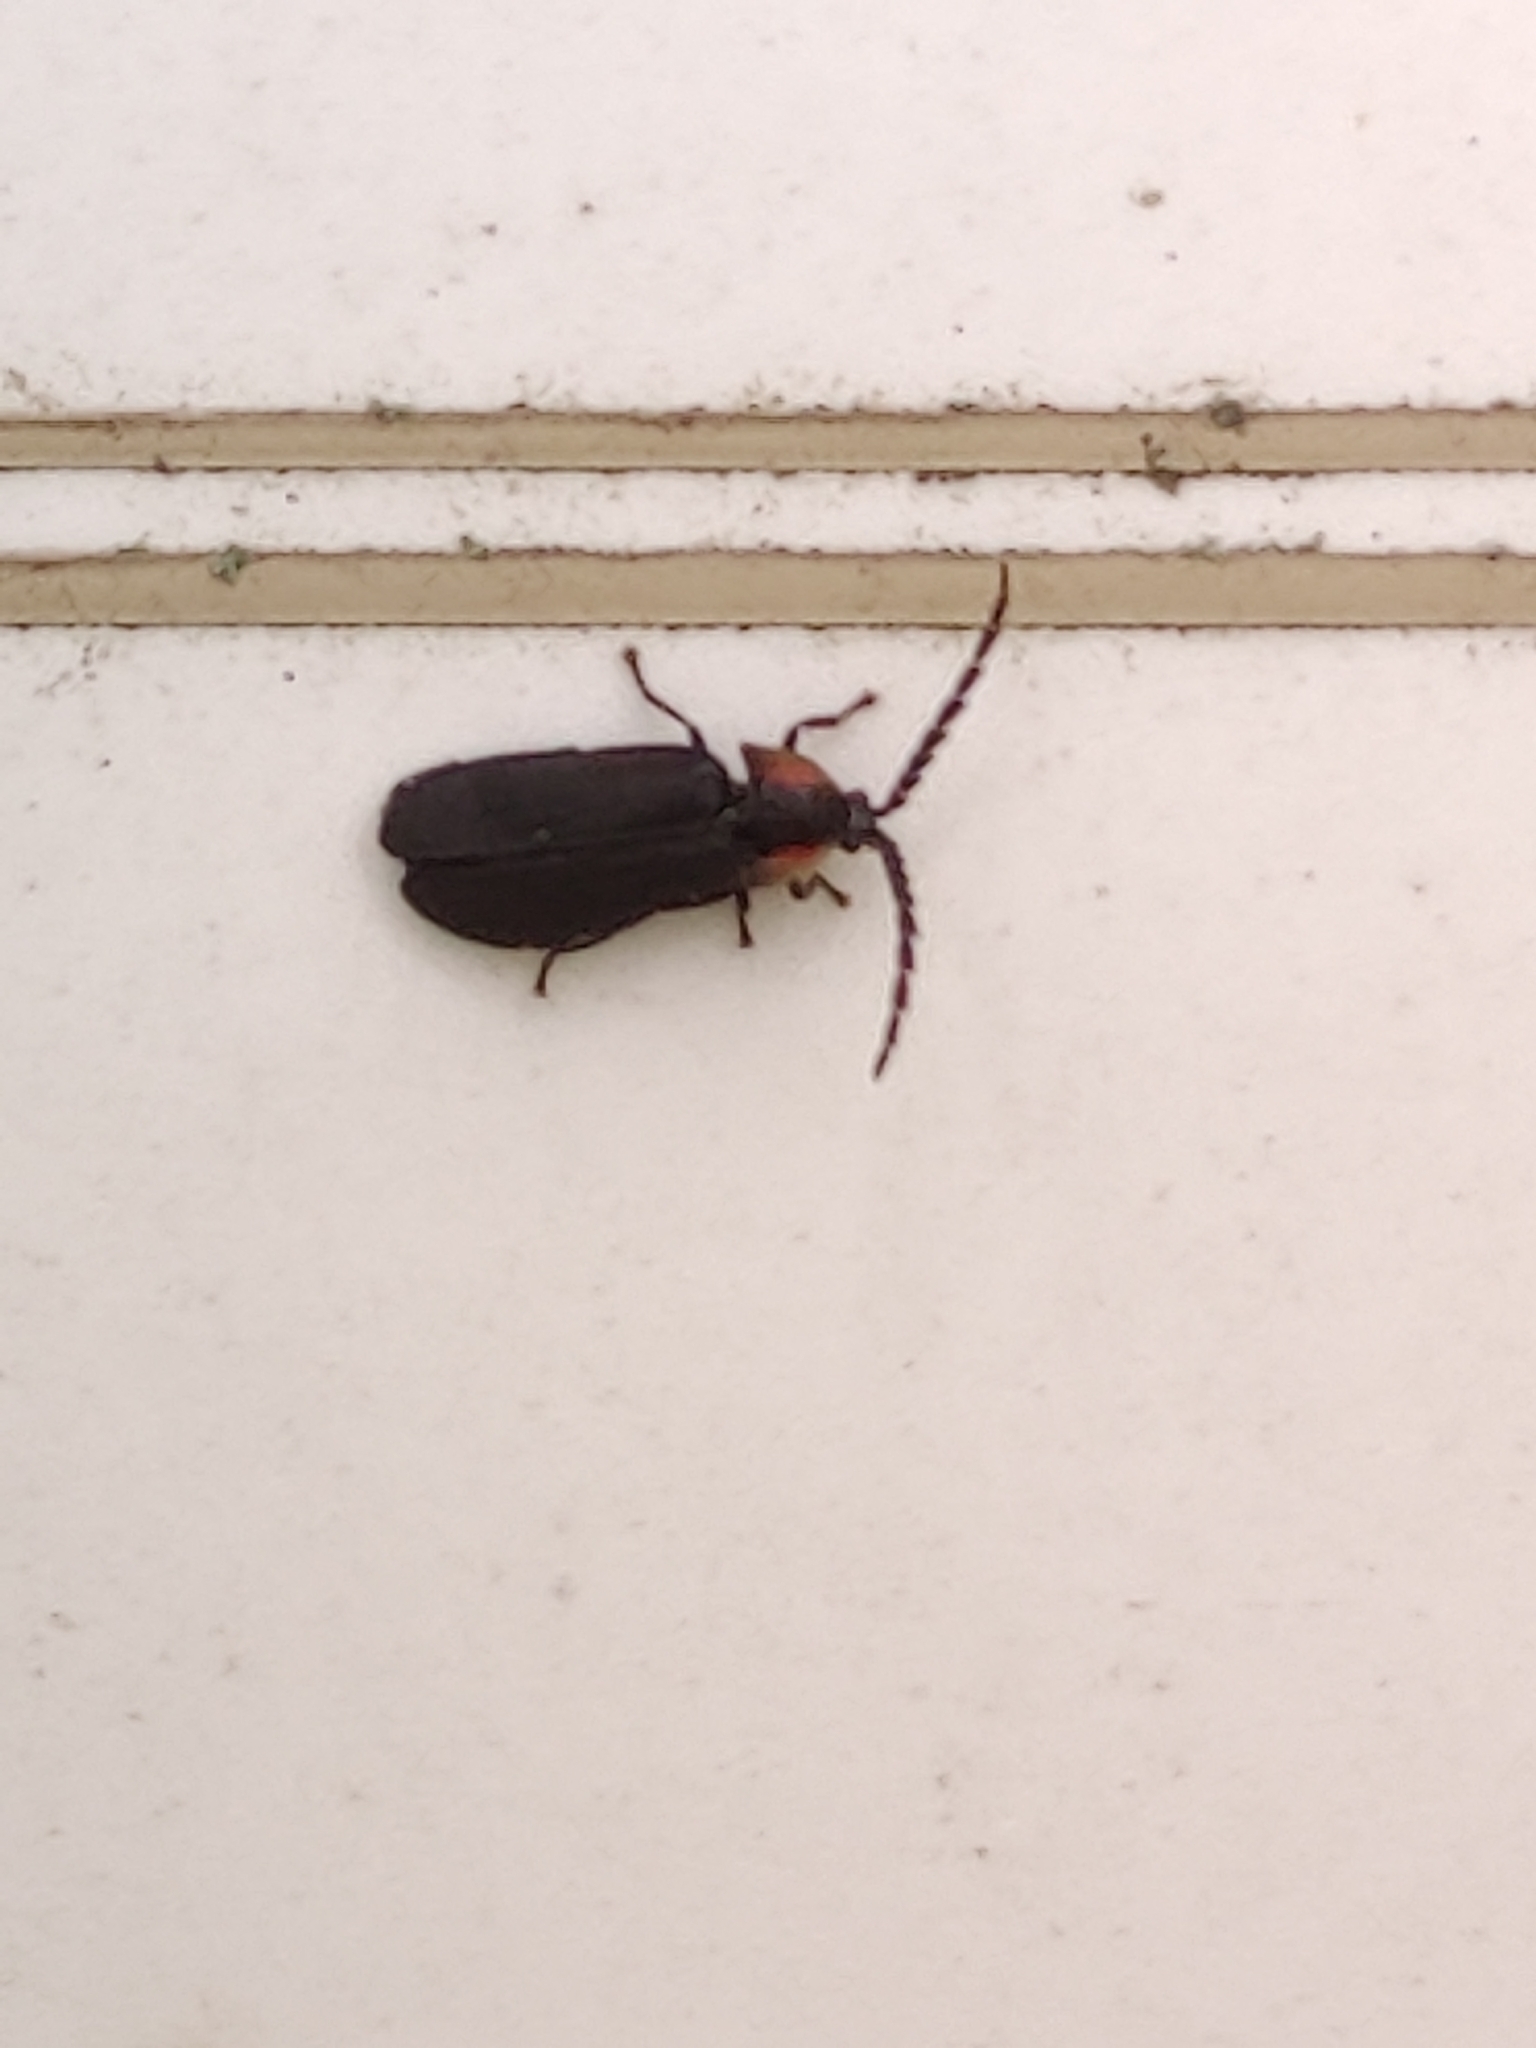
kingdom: Animalia
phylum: Arthropoda
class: Insecta
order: Coleoptera
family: Lampyridae
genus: Lucidota
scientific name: Lucidota atra
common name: Black firefly
